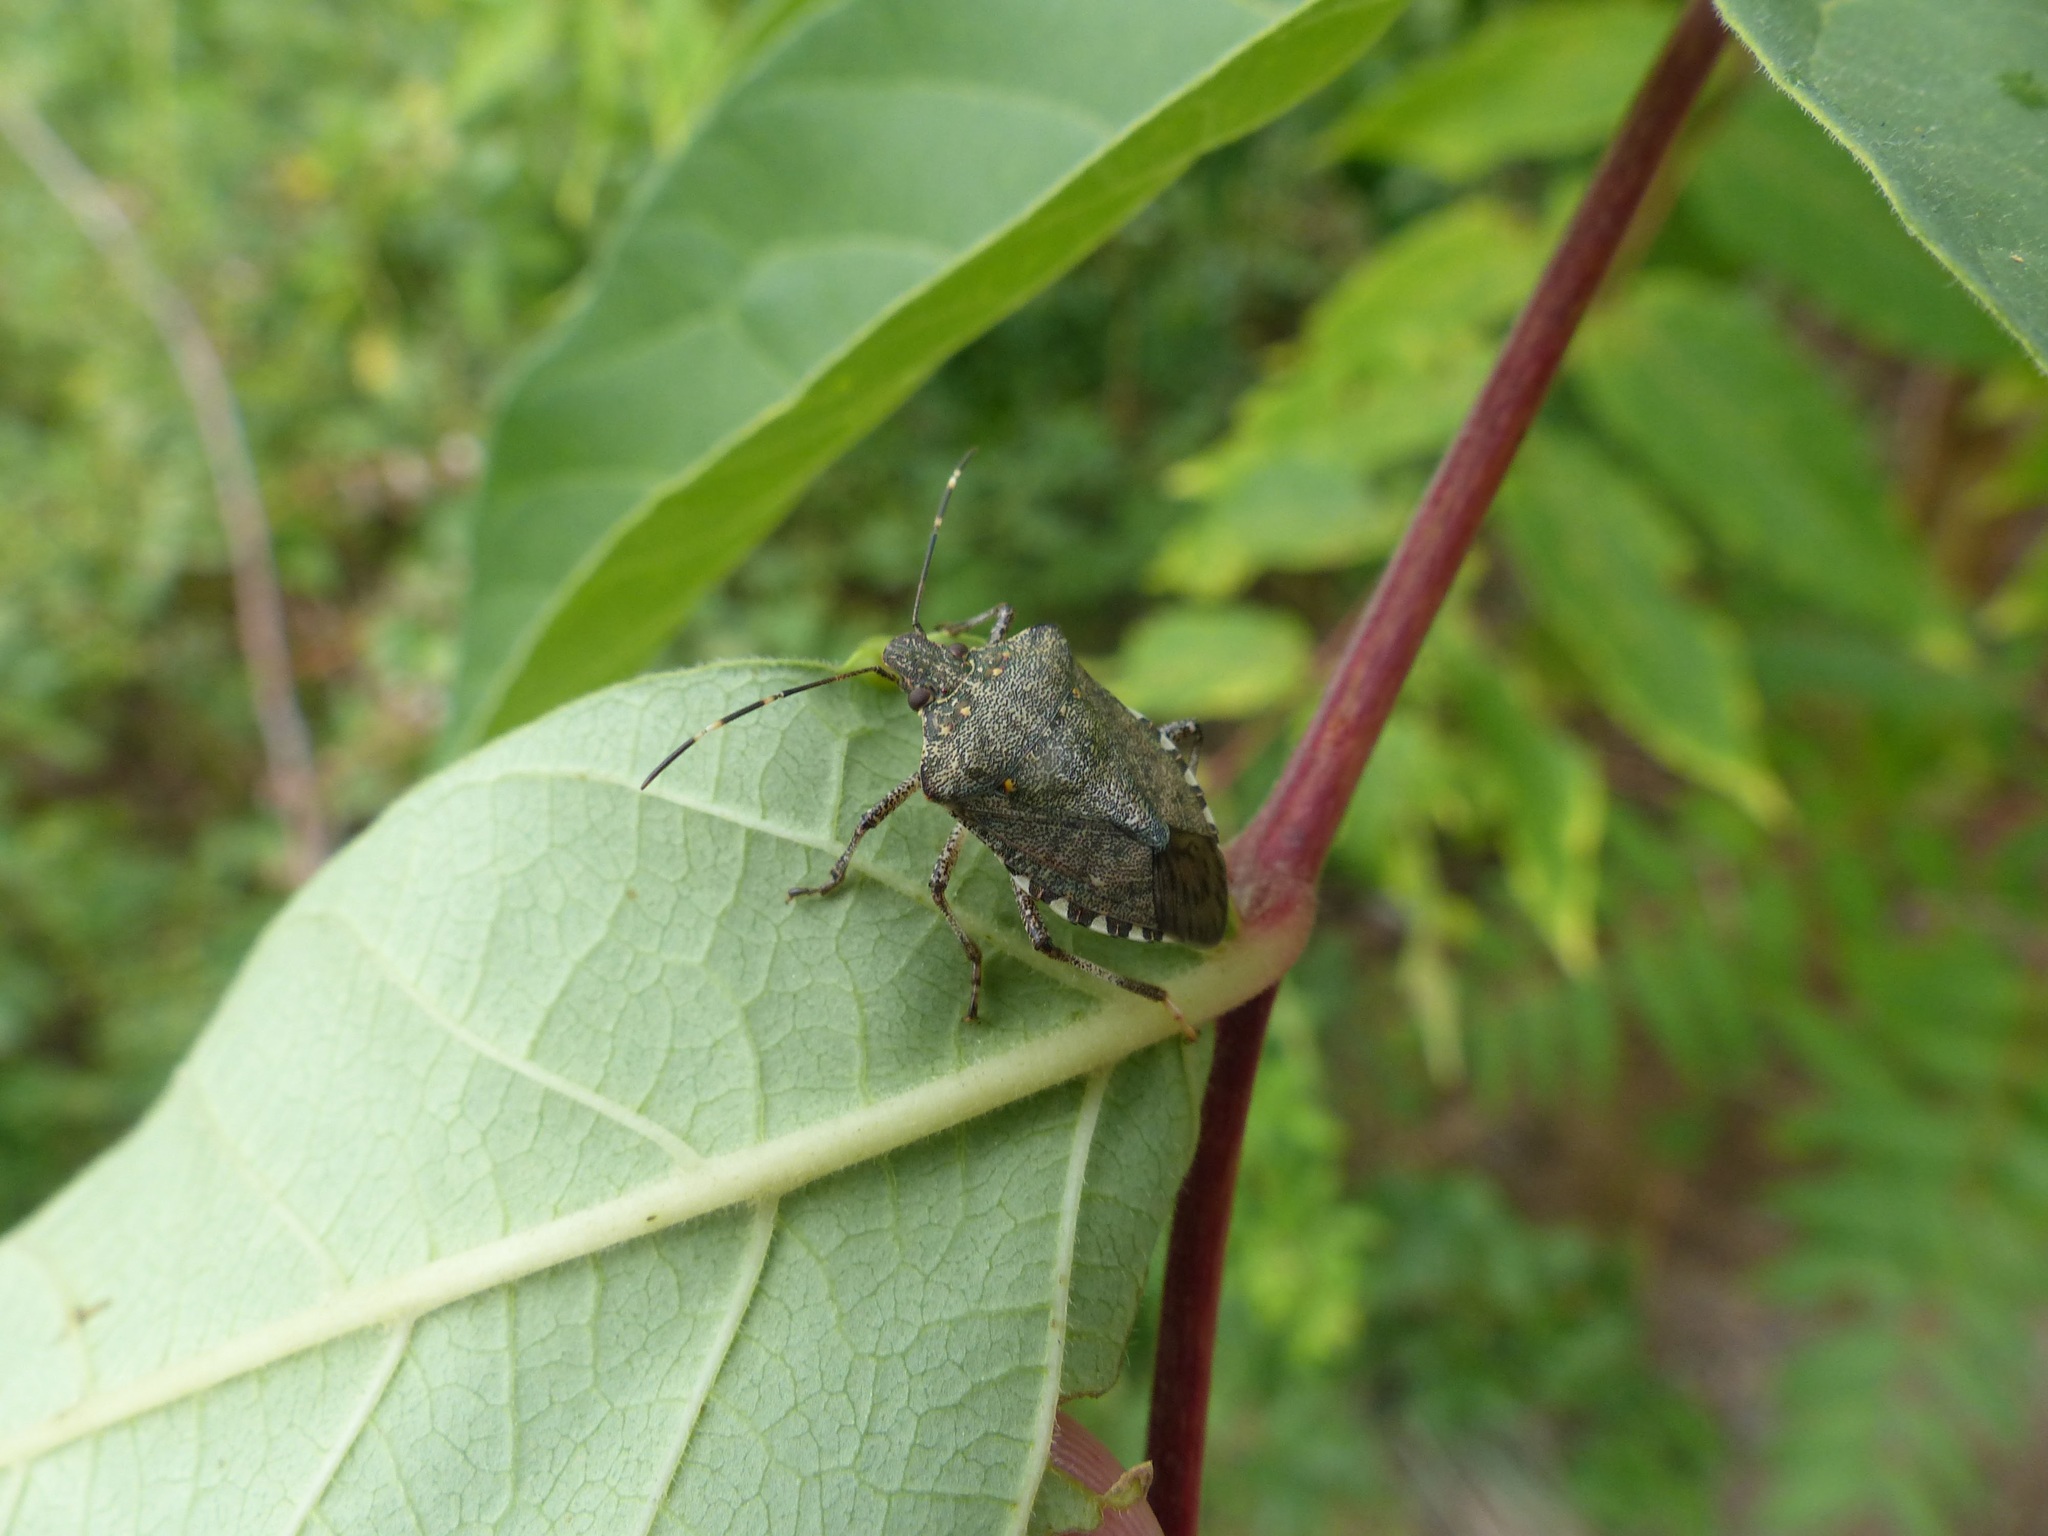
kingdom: Animalia
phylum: Arthropoda
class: Insecta
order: Hemiptera
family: Pentatomidae
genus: Halyomorpha
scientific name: Halyomorpha halys
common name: Brown marmorated stink bug
